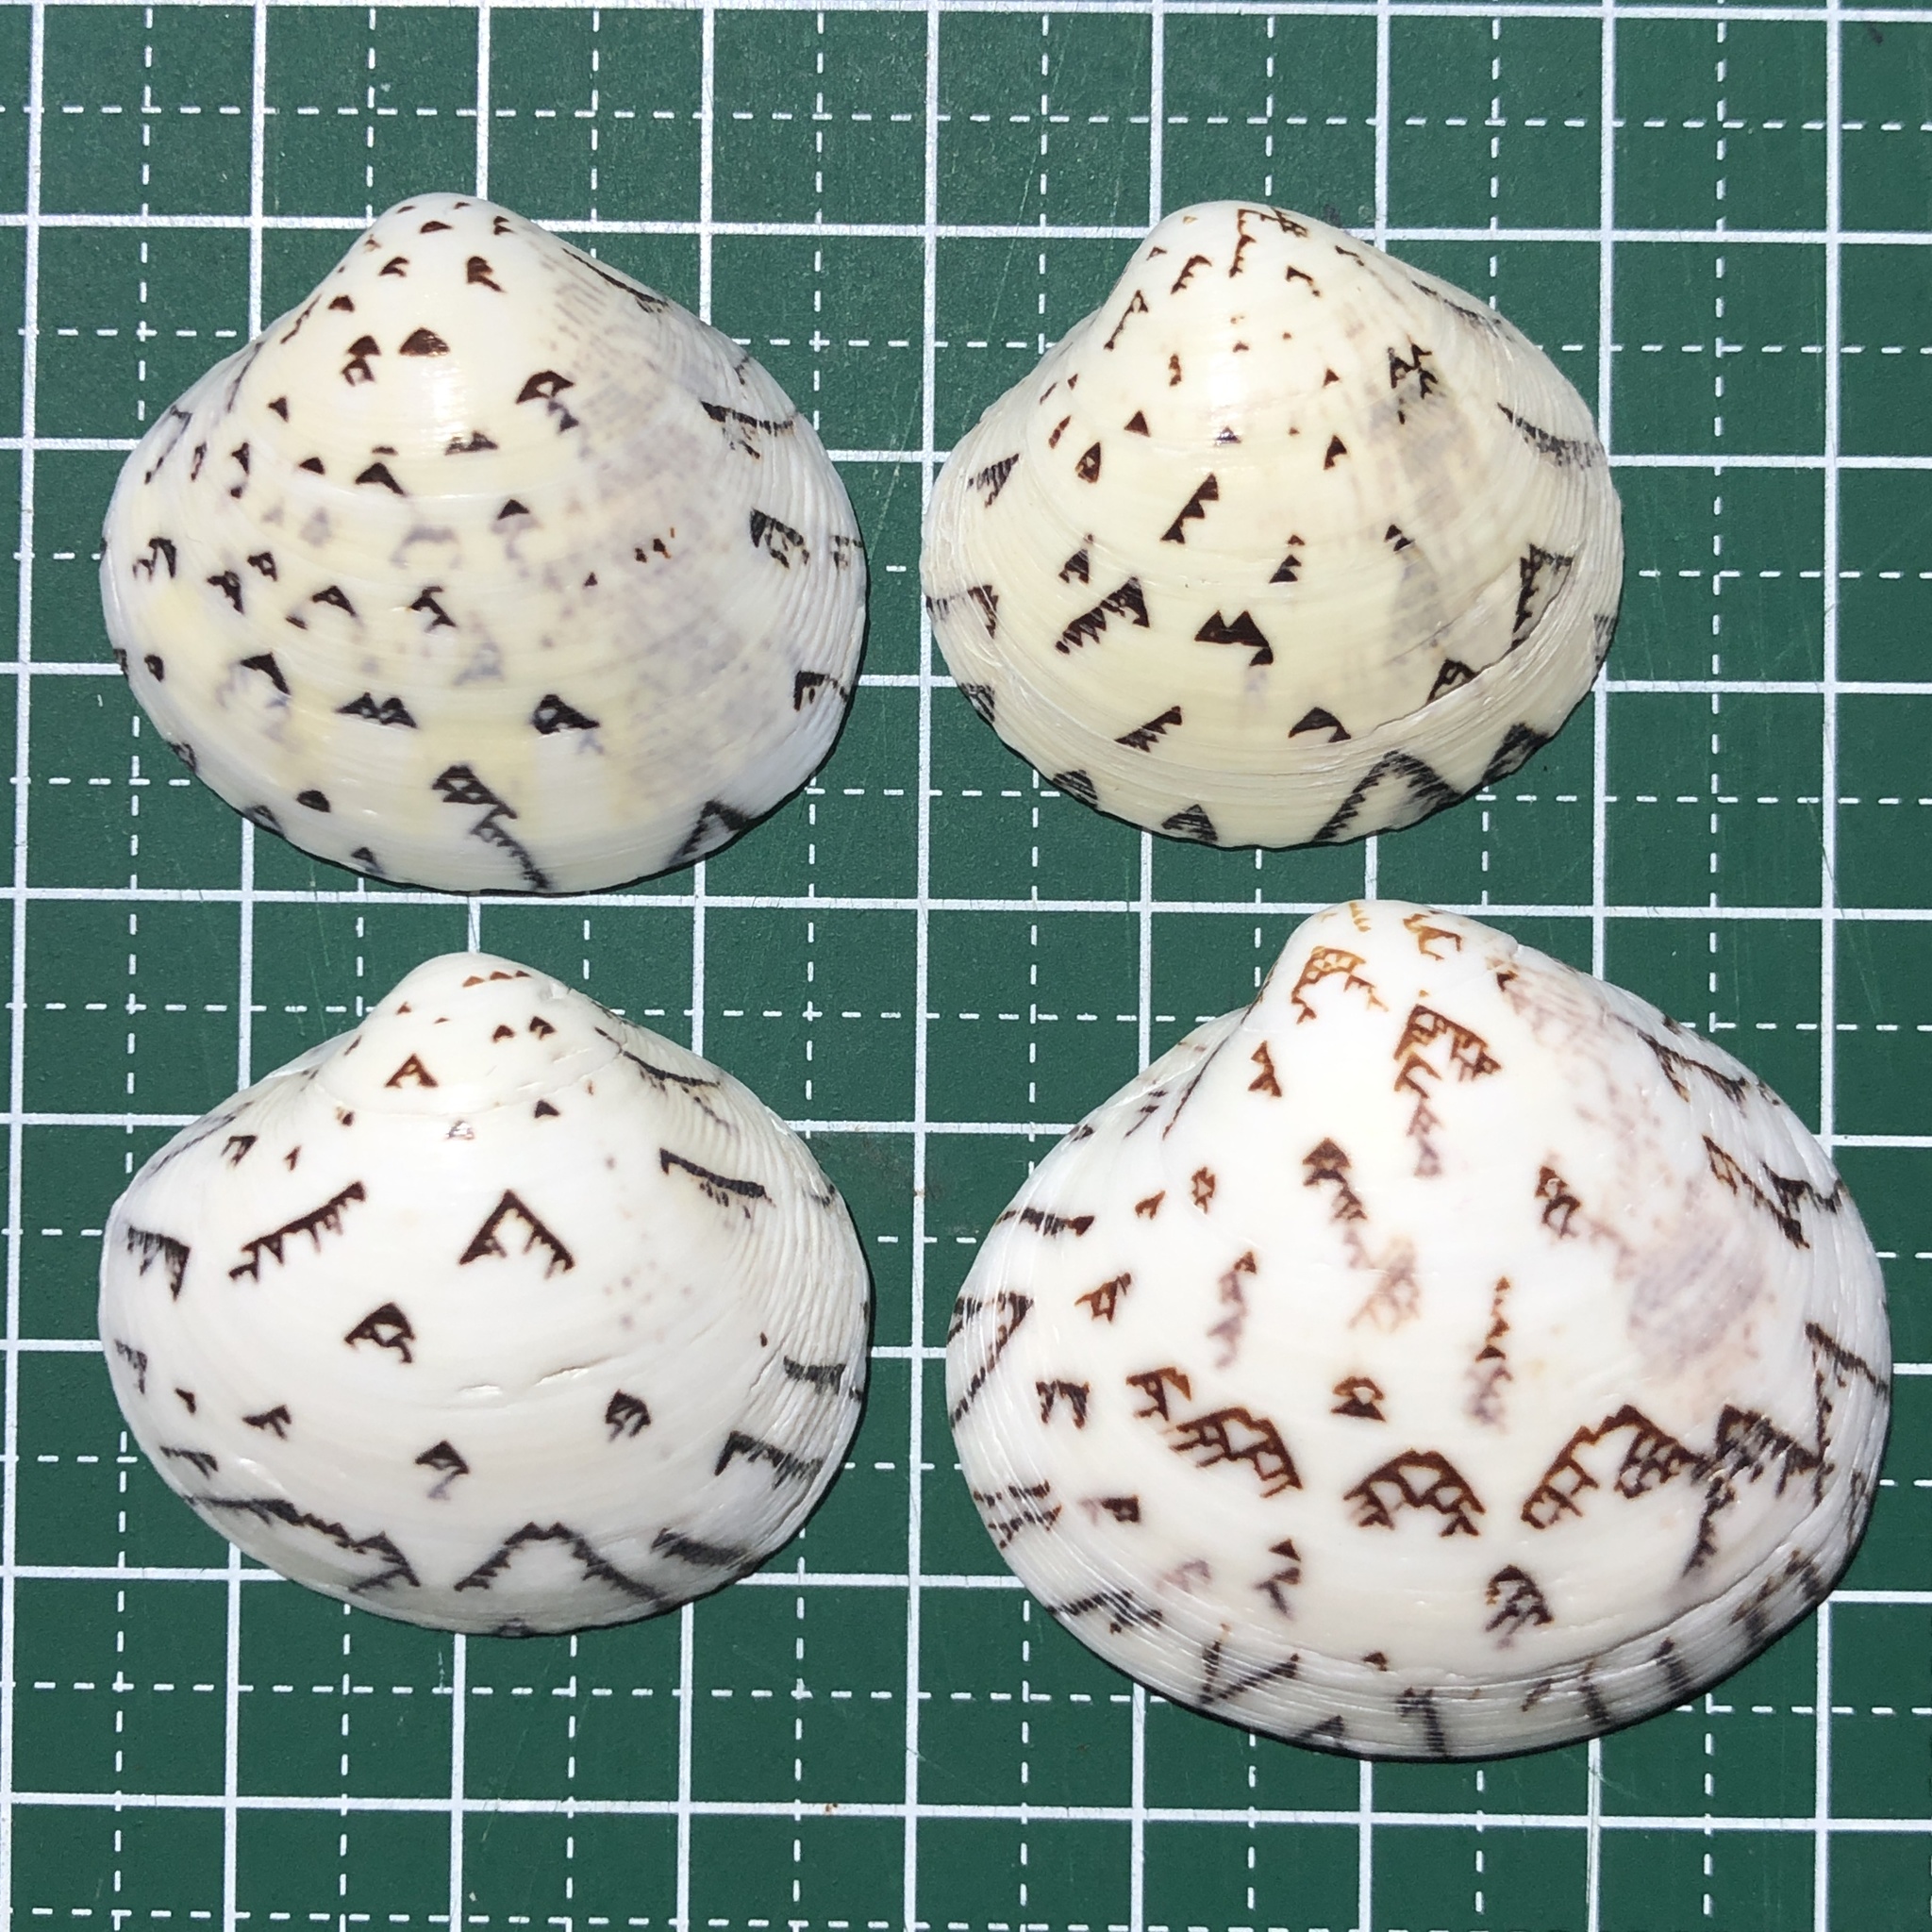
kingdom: Animalia
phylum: Mollusca
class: Bivalvia
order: Venerida
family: Veneridae
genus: Lioconcha
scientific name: Lioconcha castrensis
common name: Camp pitar-venus
